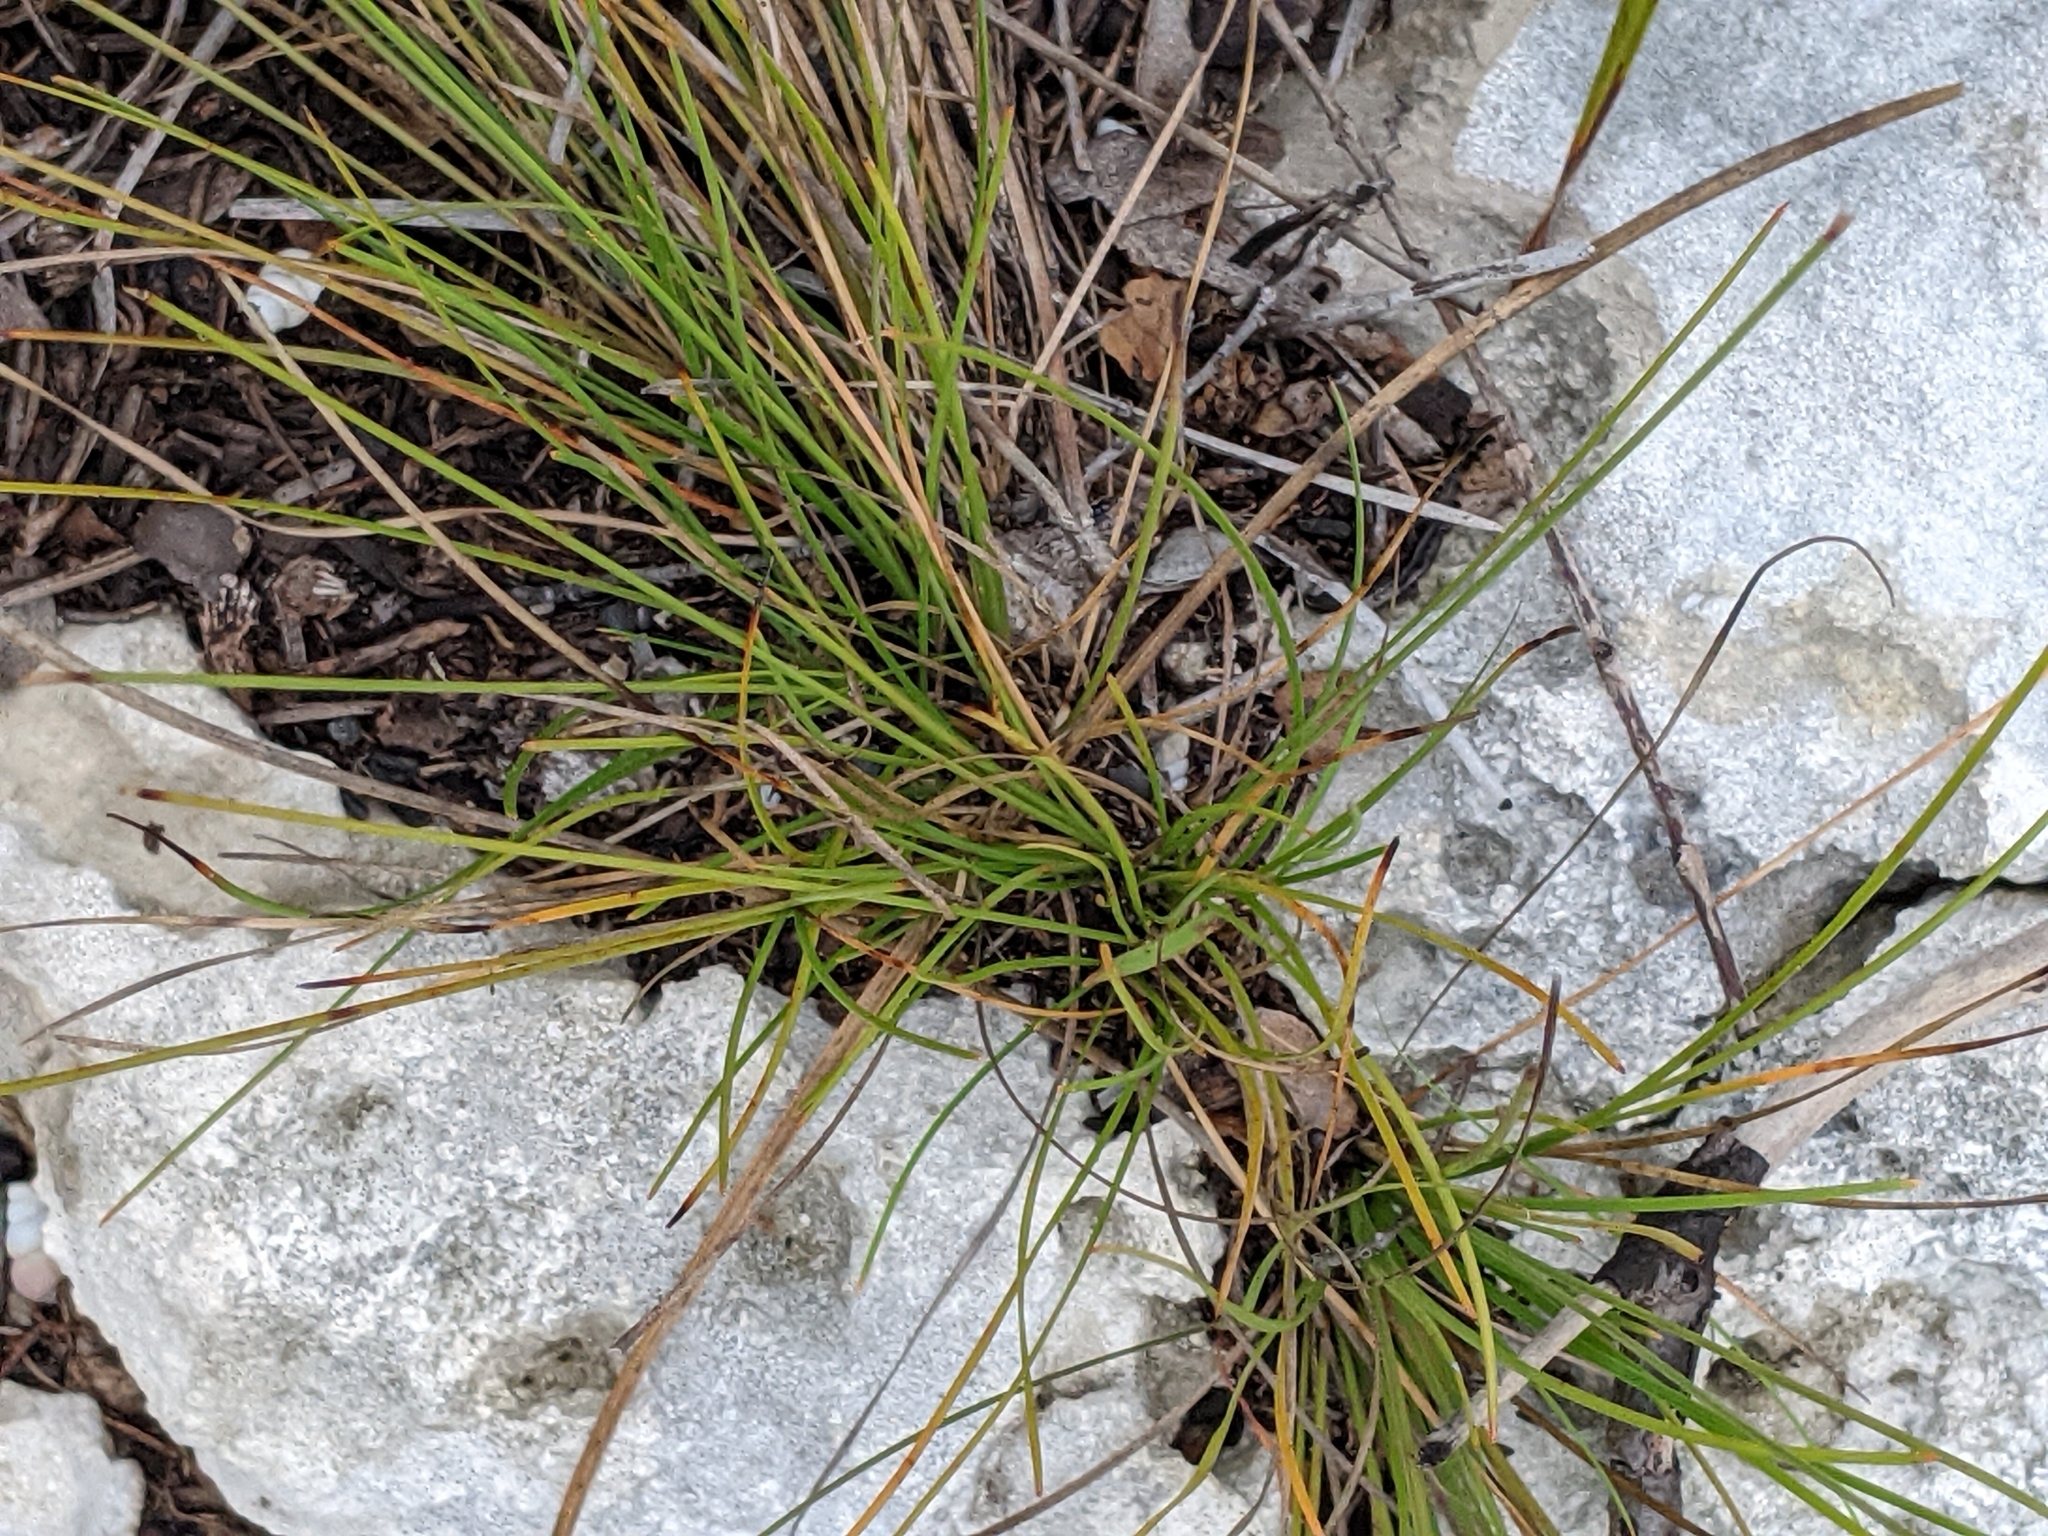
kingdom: Plantae
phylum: Tracheophyta
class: Liliopsida
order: Poales
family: Cyperaceae
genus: Abildgaardia
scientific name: Abildgaardia ovata
